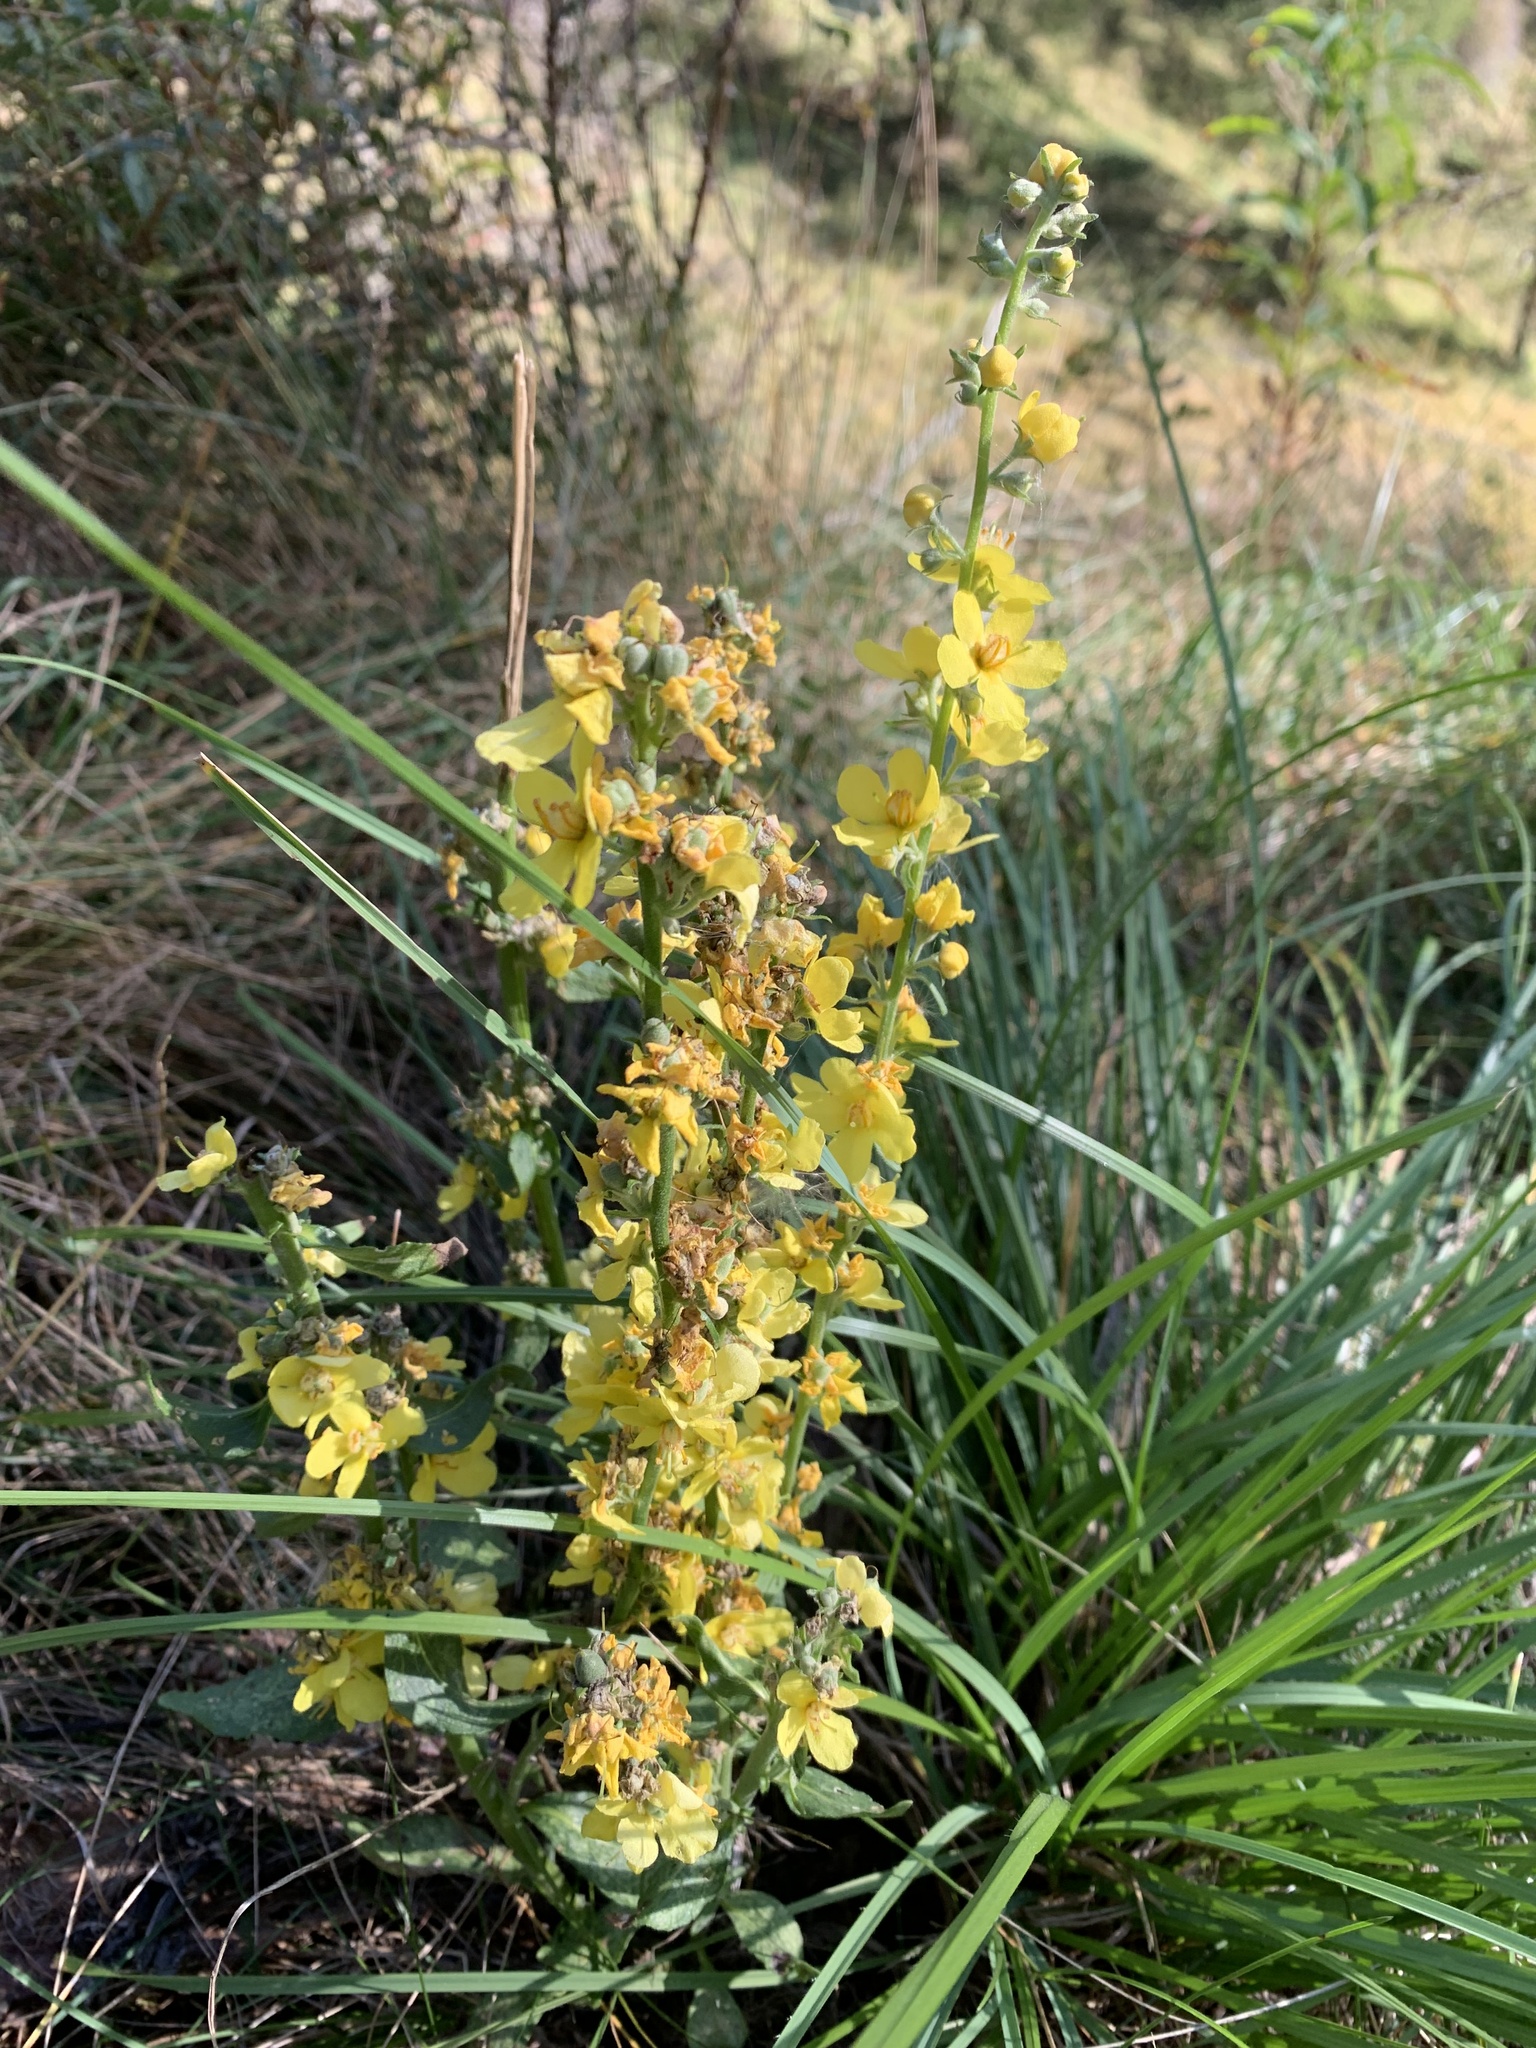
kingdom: Plantae
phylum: Tracheophyta
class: Magnoliopsida
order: Lamiales
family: Scrophulariaceae
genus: Verbascum
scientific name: Verbascum lychnitis
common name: White mullein
